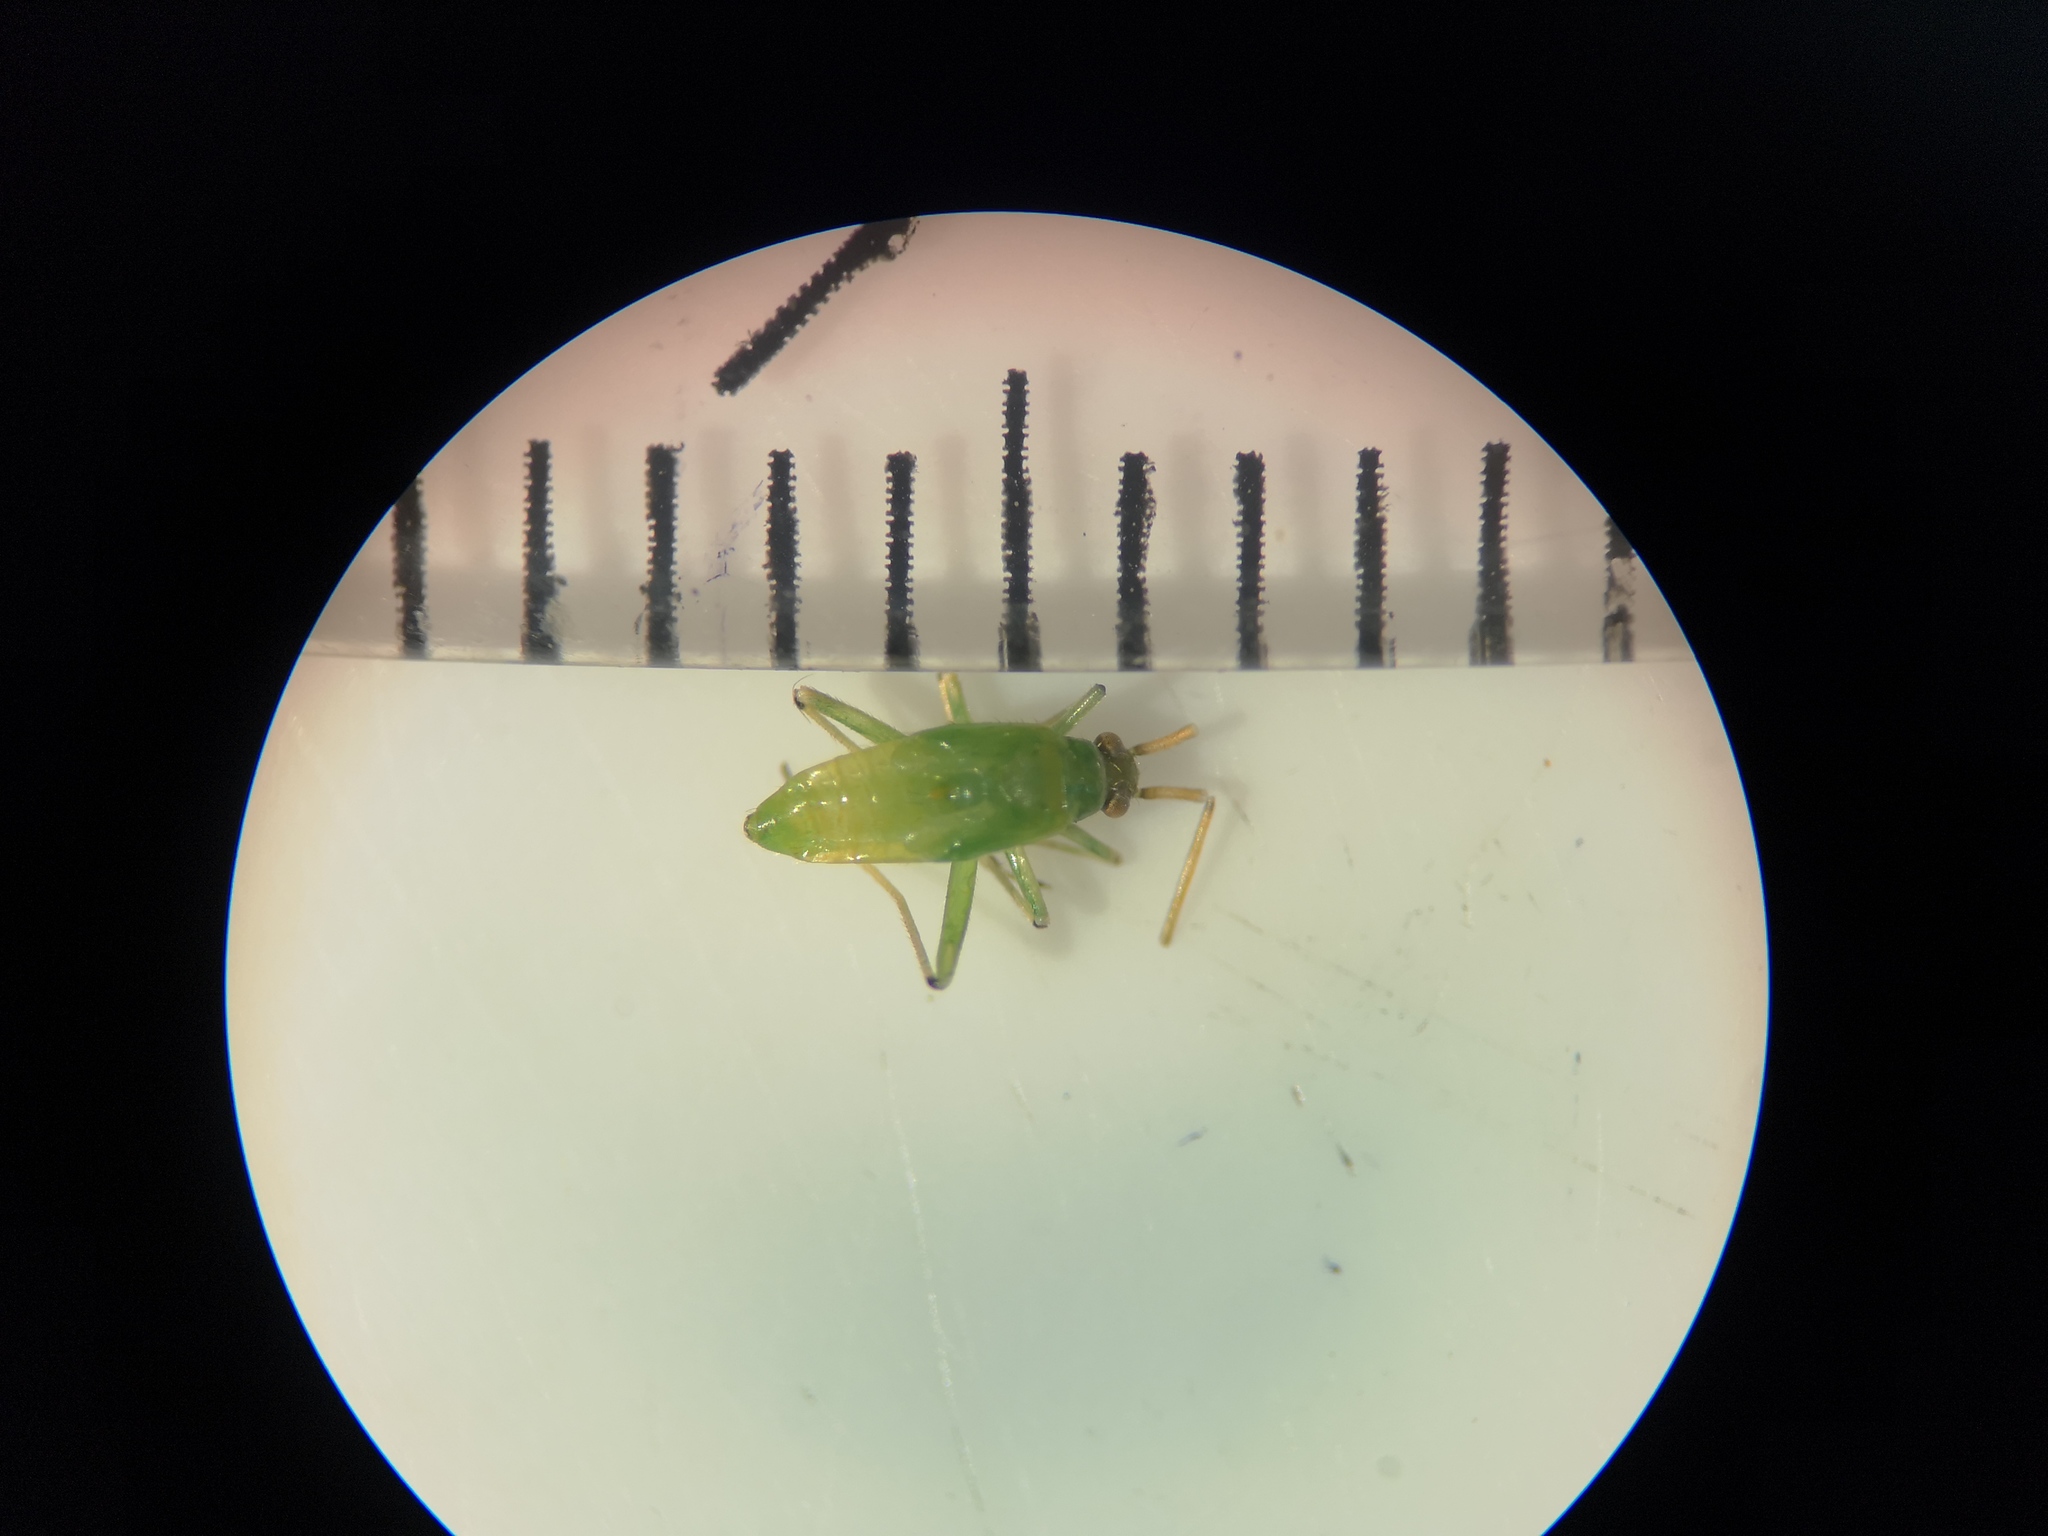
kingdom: Animalia
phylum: Arthropoda
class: Insecta
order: Hemiptera
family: Miridae
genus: Blepharidopterus
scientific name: Blepharidopterus angulatus
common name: Plant bug
